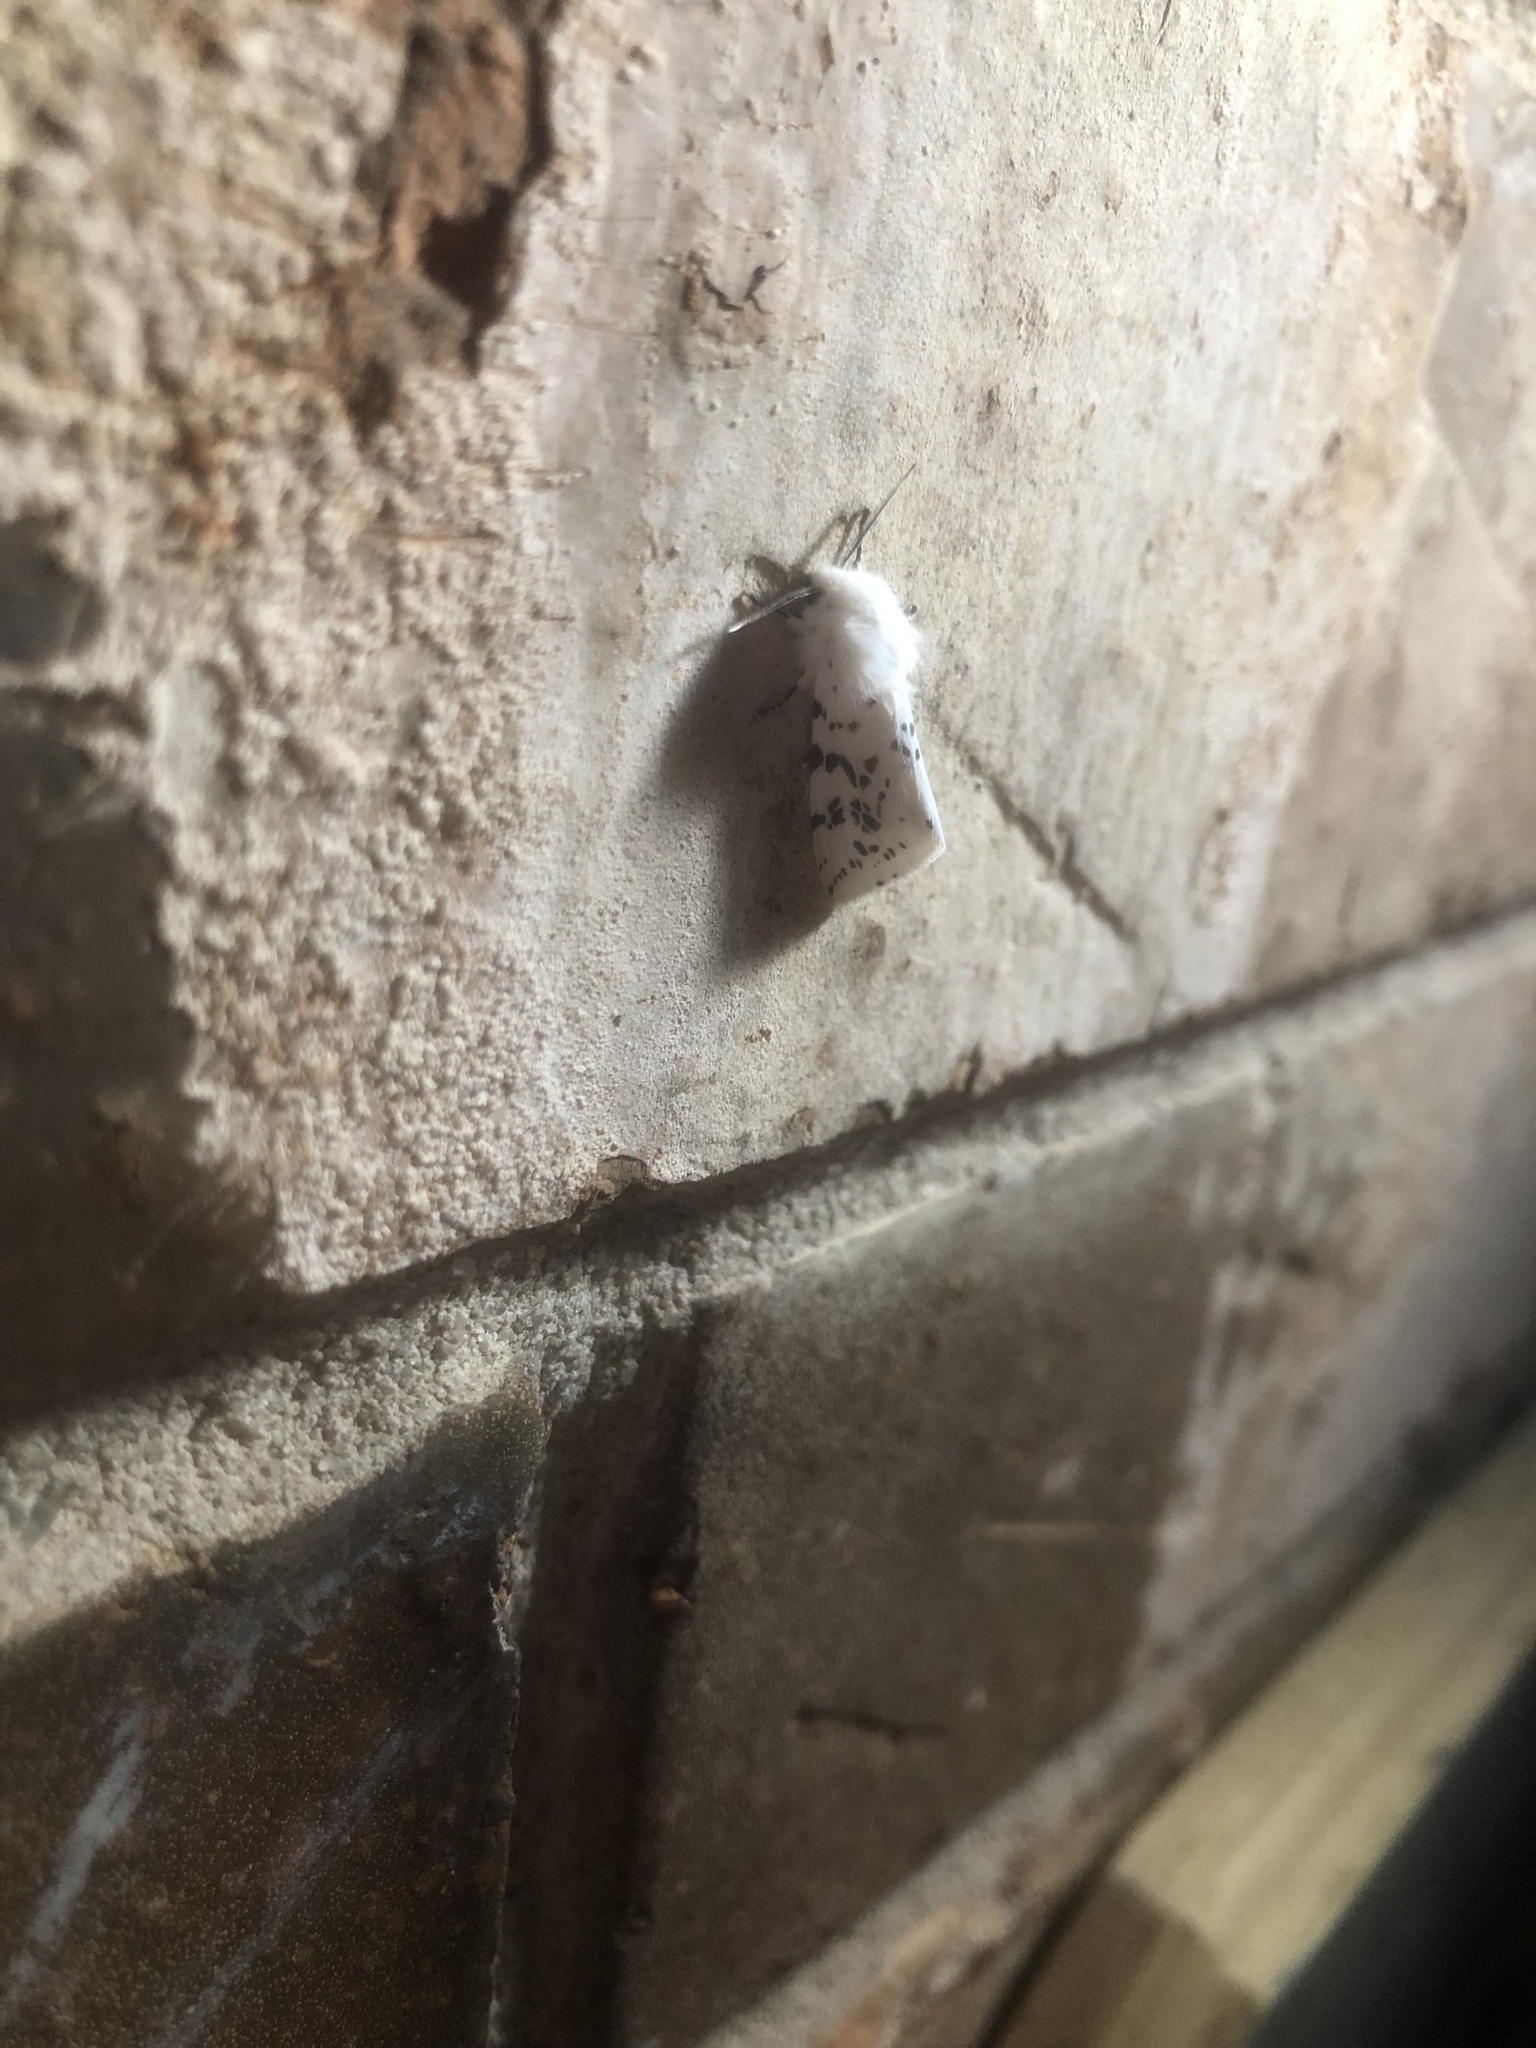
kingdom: Animalia
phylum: Arthropoda
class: Insecta
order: Lepidoptera
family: Erebidae
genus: Hyphantria
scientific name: Hyphantria cunea
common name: American white moth
